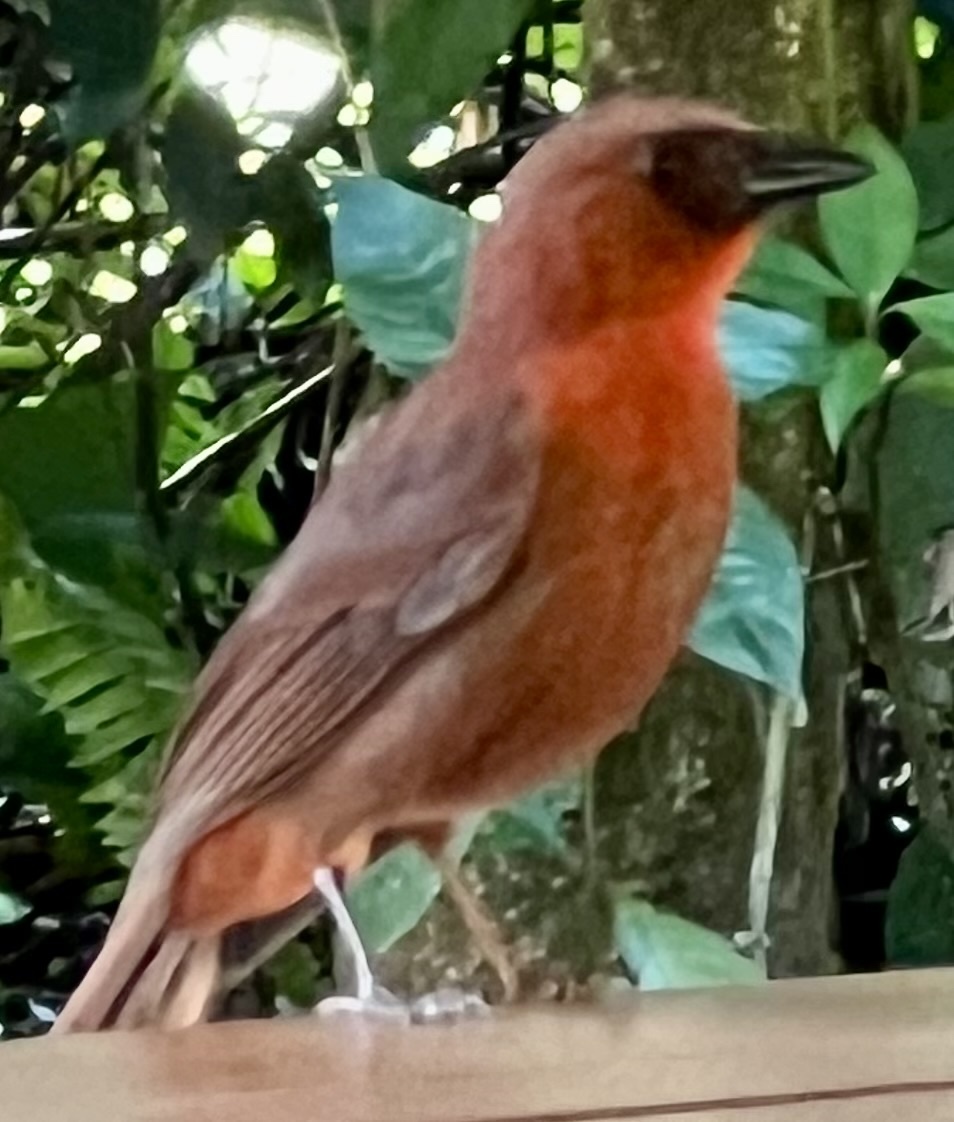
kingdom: Animalia
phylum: Chordata
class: Aves
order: Passeriformes
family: Cardinalidae
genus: Habia
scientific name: Habia fuscicauda
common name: Red-throated ant-tanager
